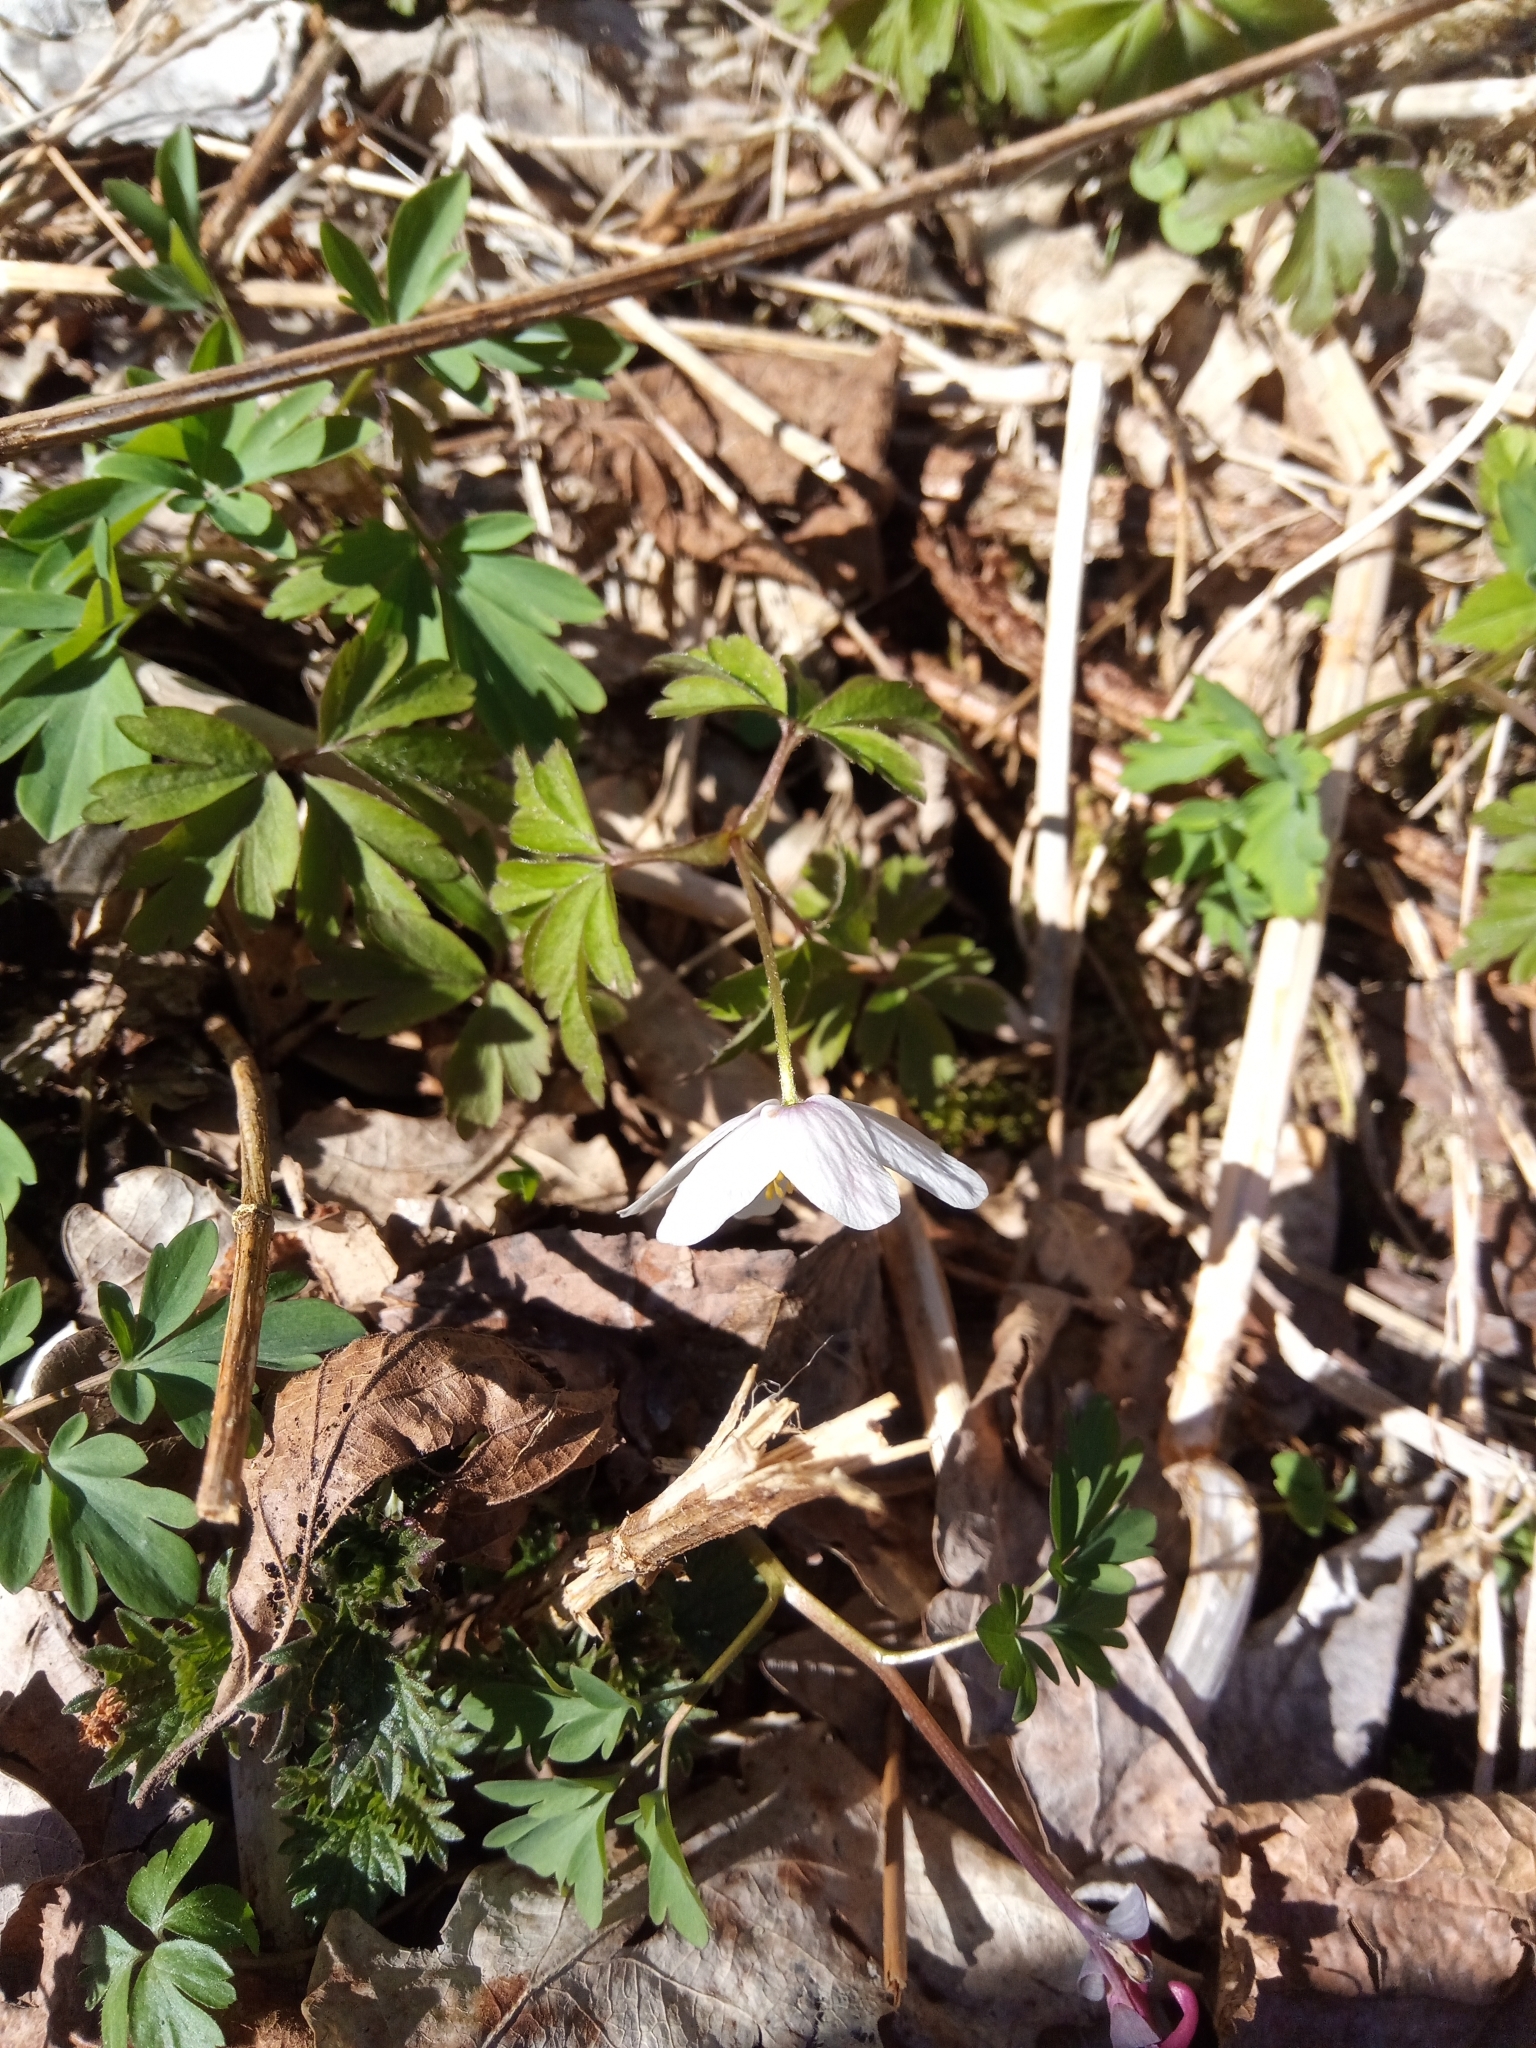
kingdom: Plantae
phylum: Tracheophyta
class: Magnoliopsida
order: Ranunculales
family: Ranunculaceae
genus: Anemone
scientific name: Anemone nemorosa
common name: Wood anemone
